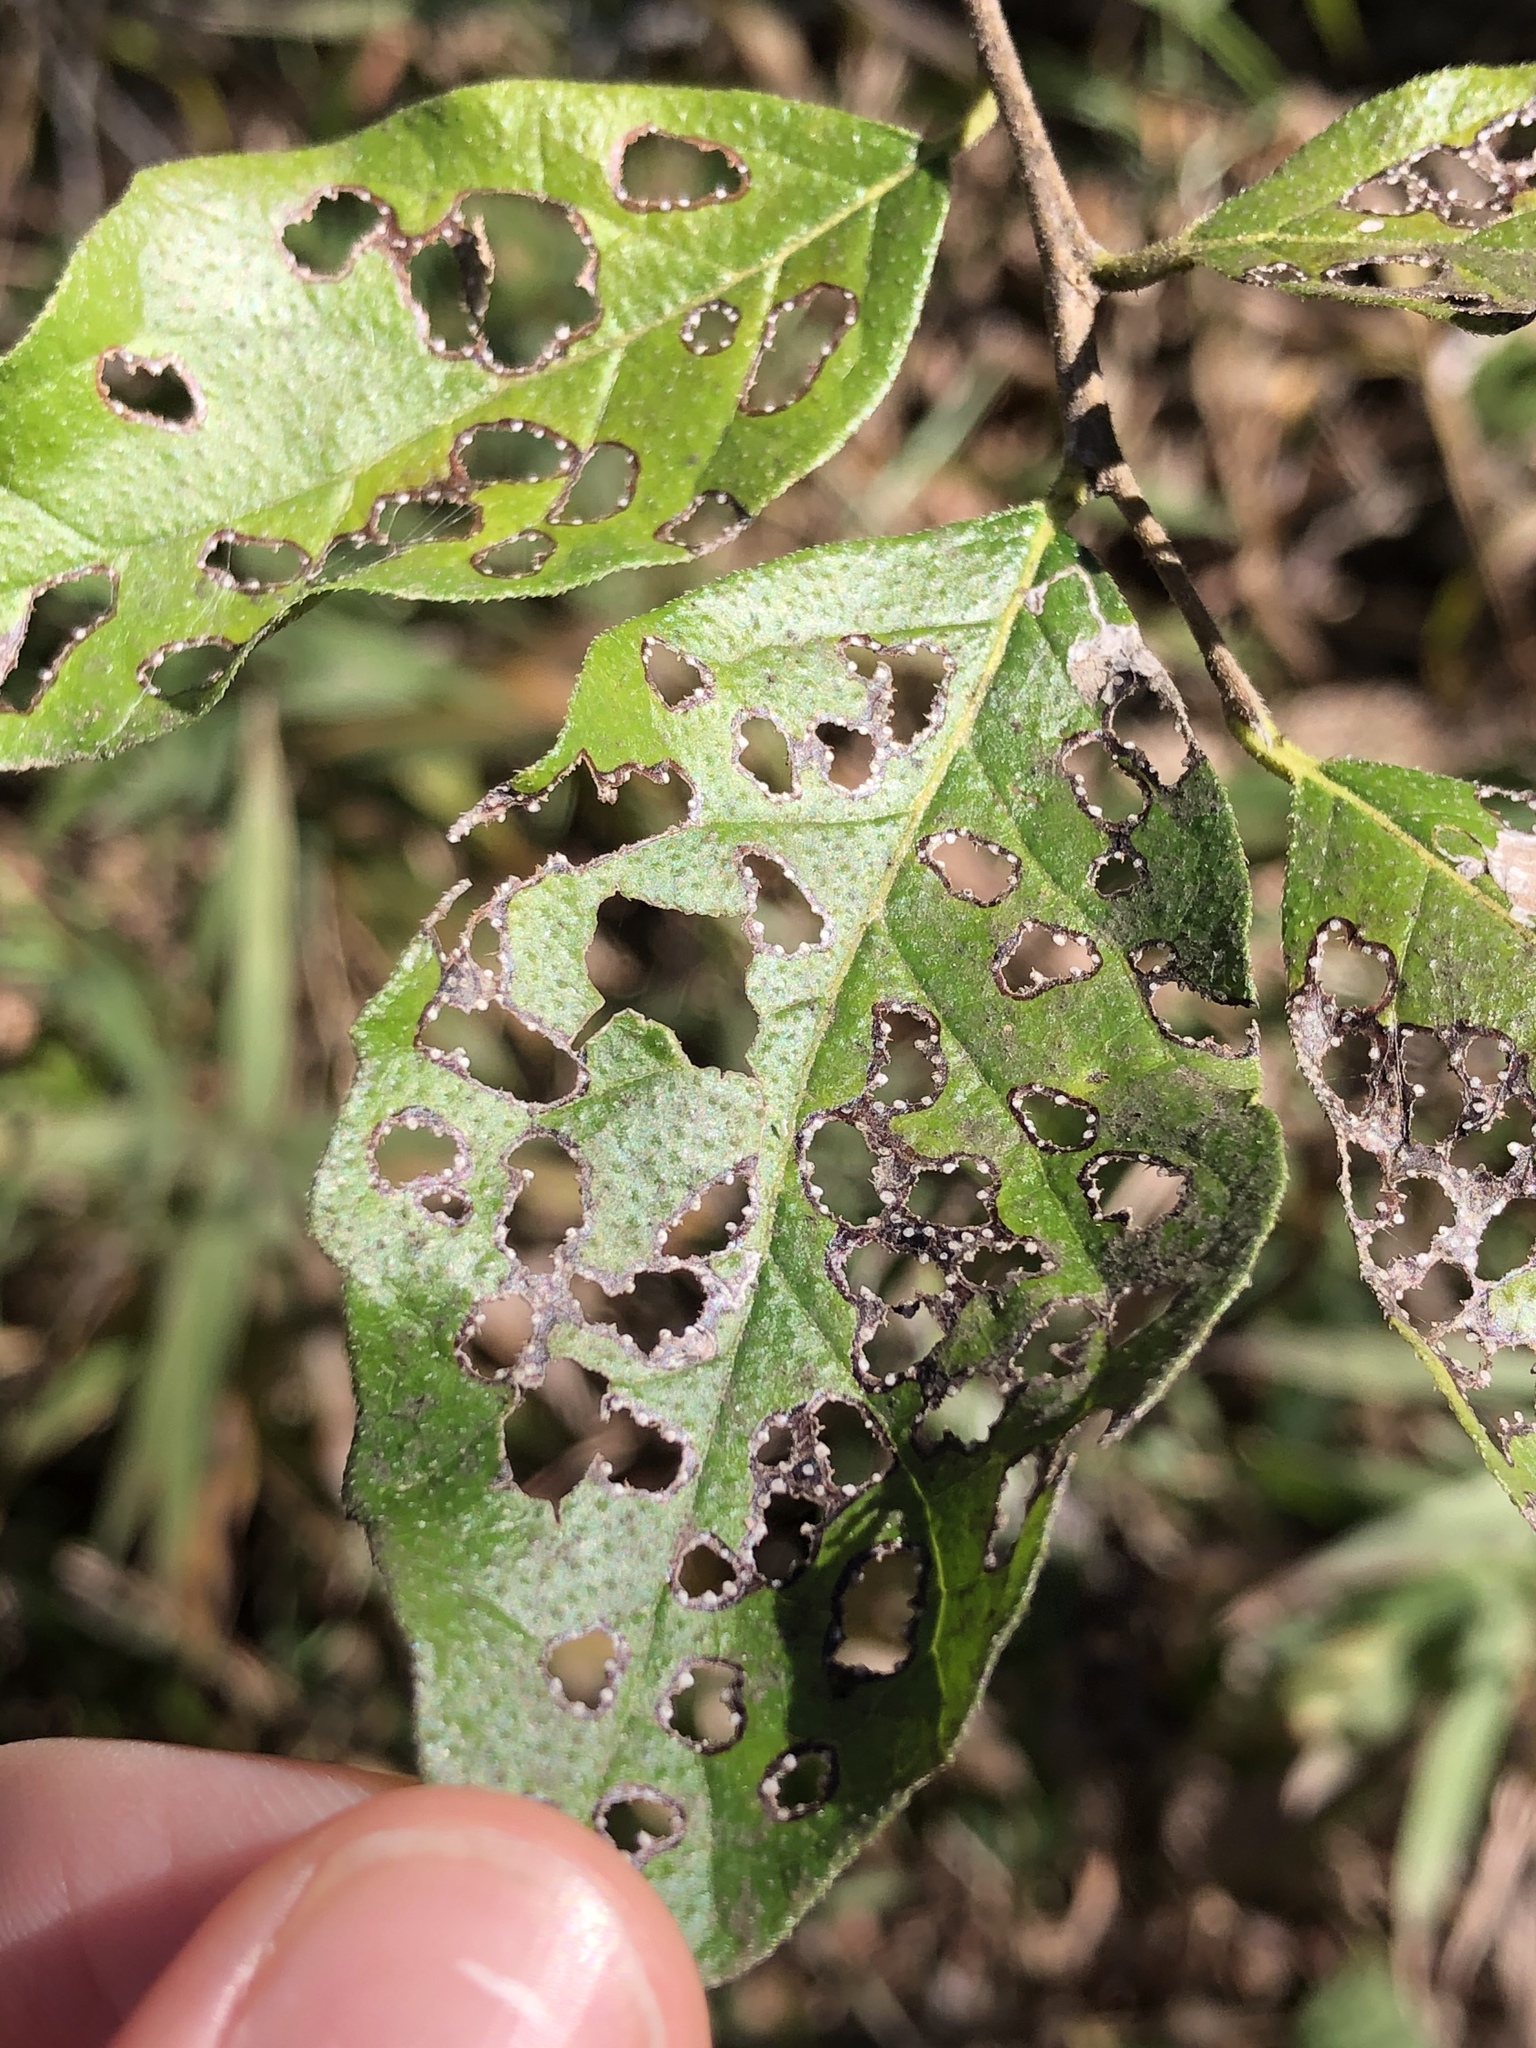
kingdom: Animalia
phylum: Arthropoda
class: Insecta
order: Coleoptera
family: Chrysomelidae
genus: Coptocycla
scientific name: Coptocycla texana
